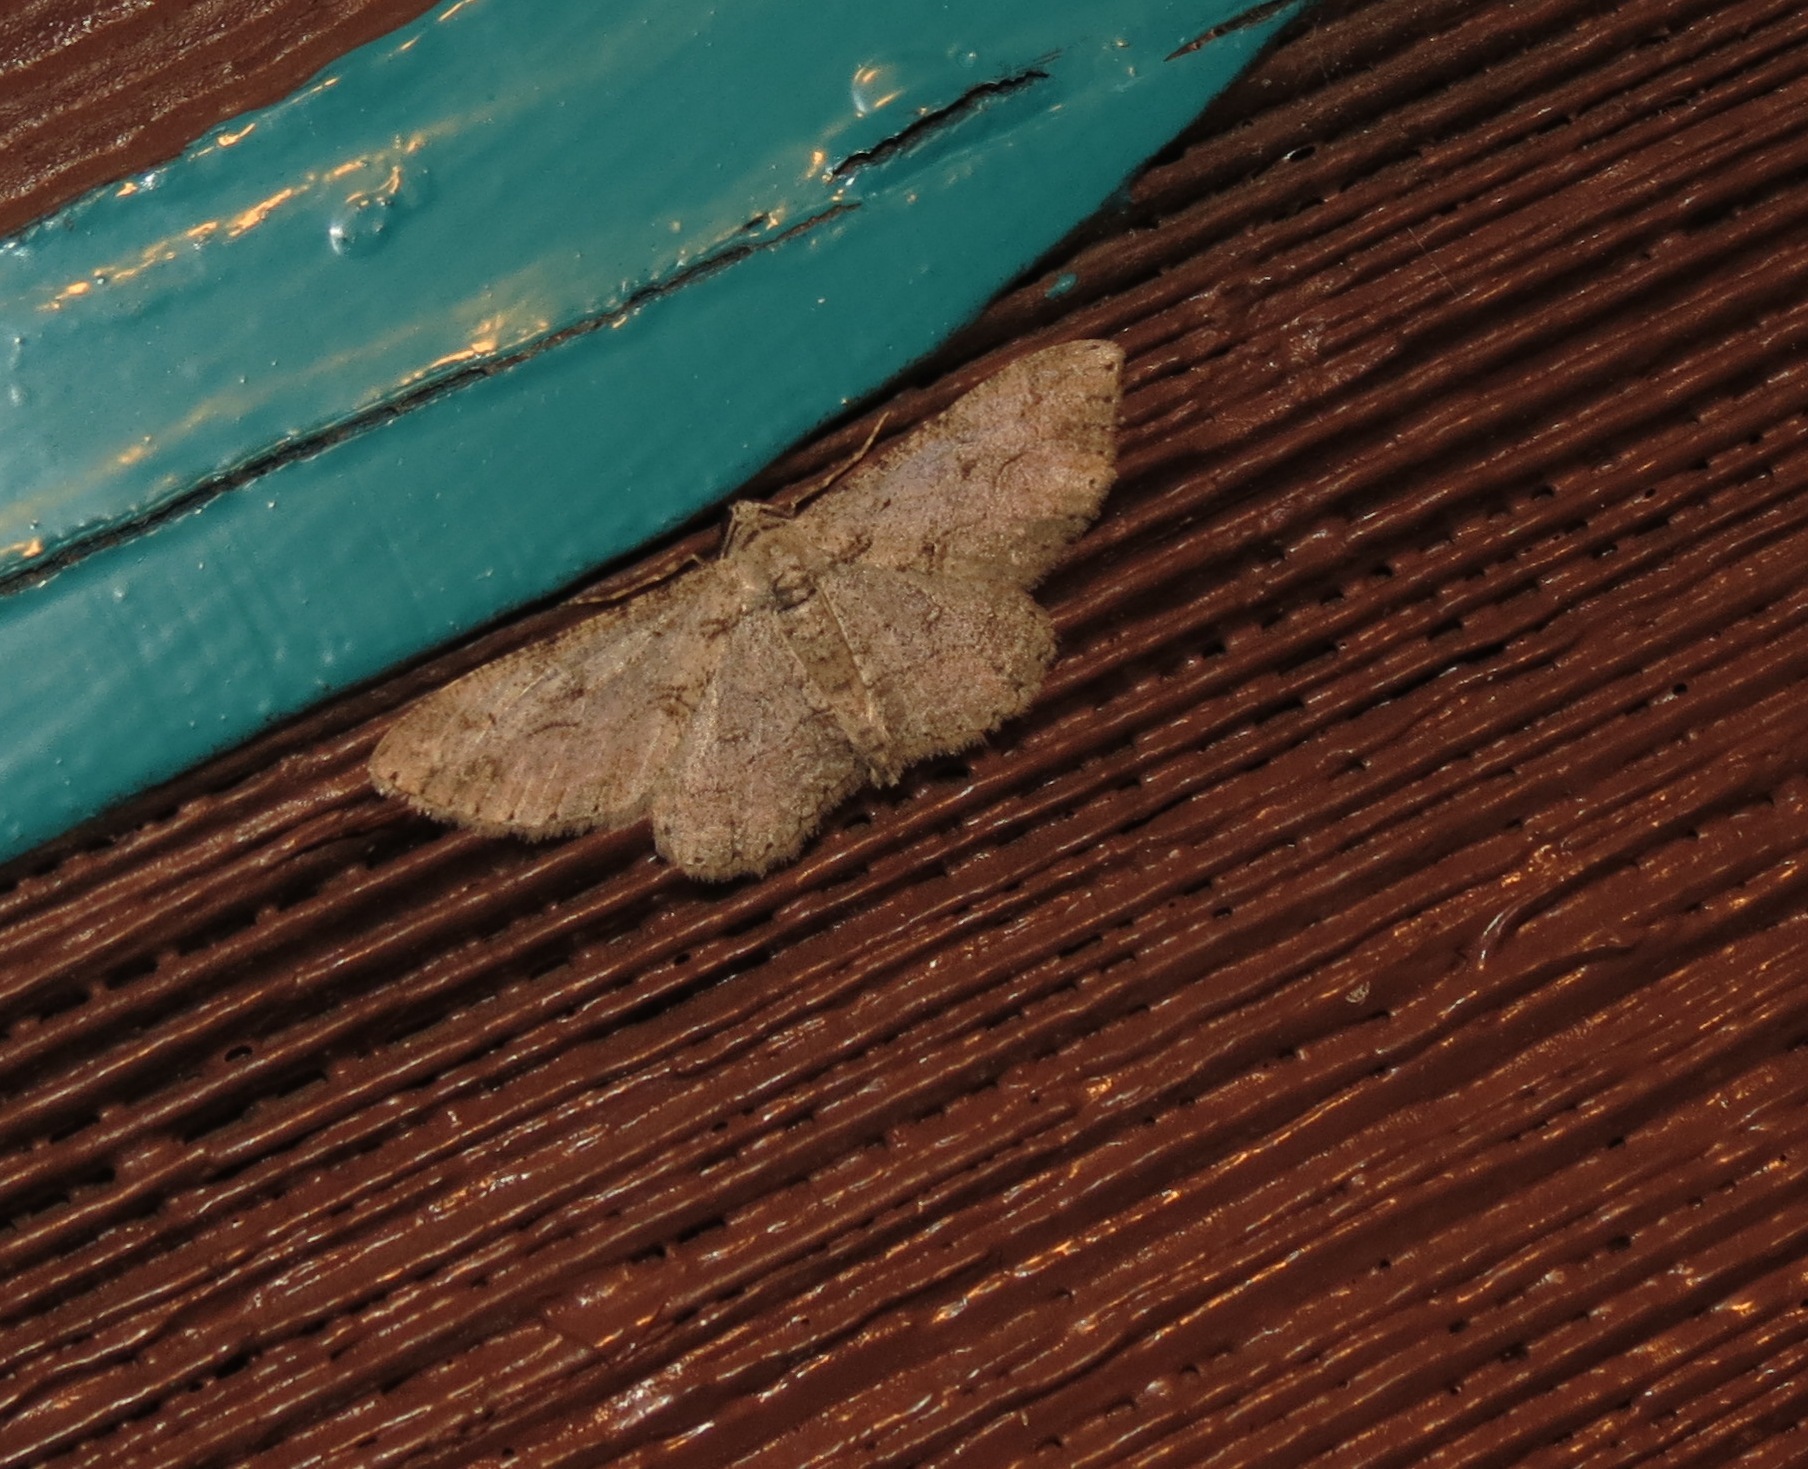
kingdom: Animalia
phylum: Arthropoda
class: Insecta
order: Lepidoptera
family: Geometridae
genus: Iridopsis
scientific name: Iridopsis fragilaria
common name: Moth
